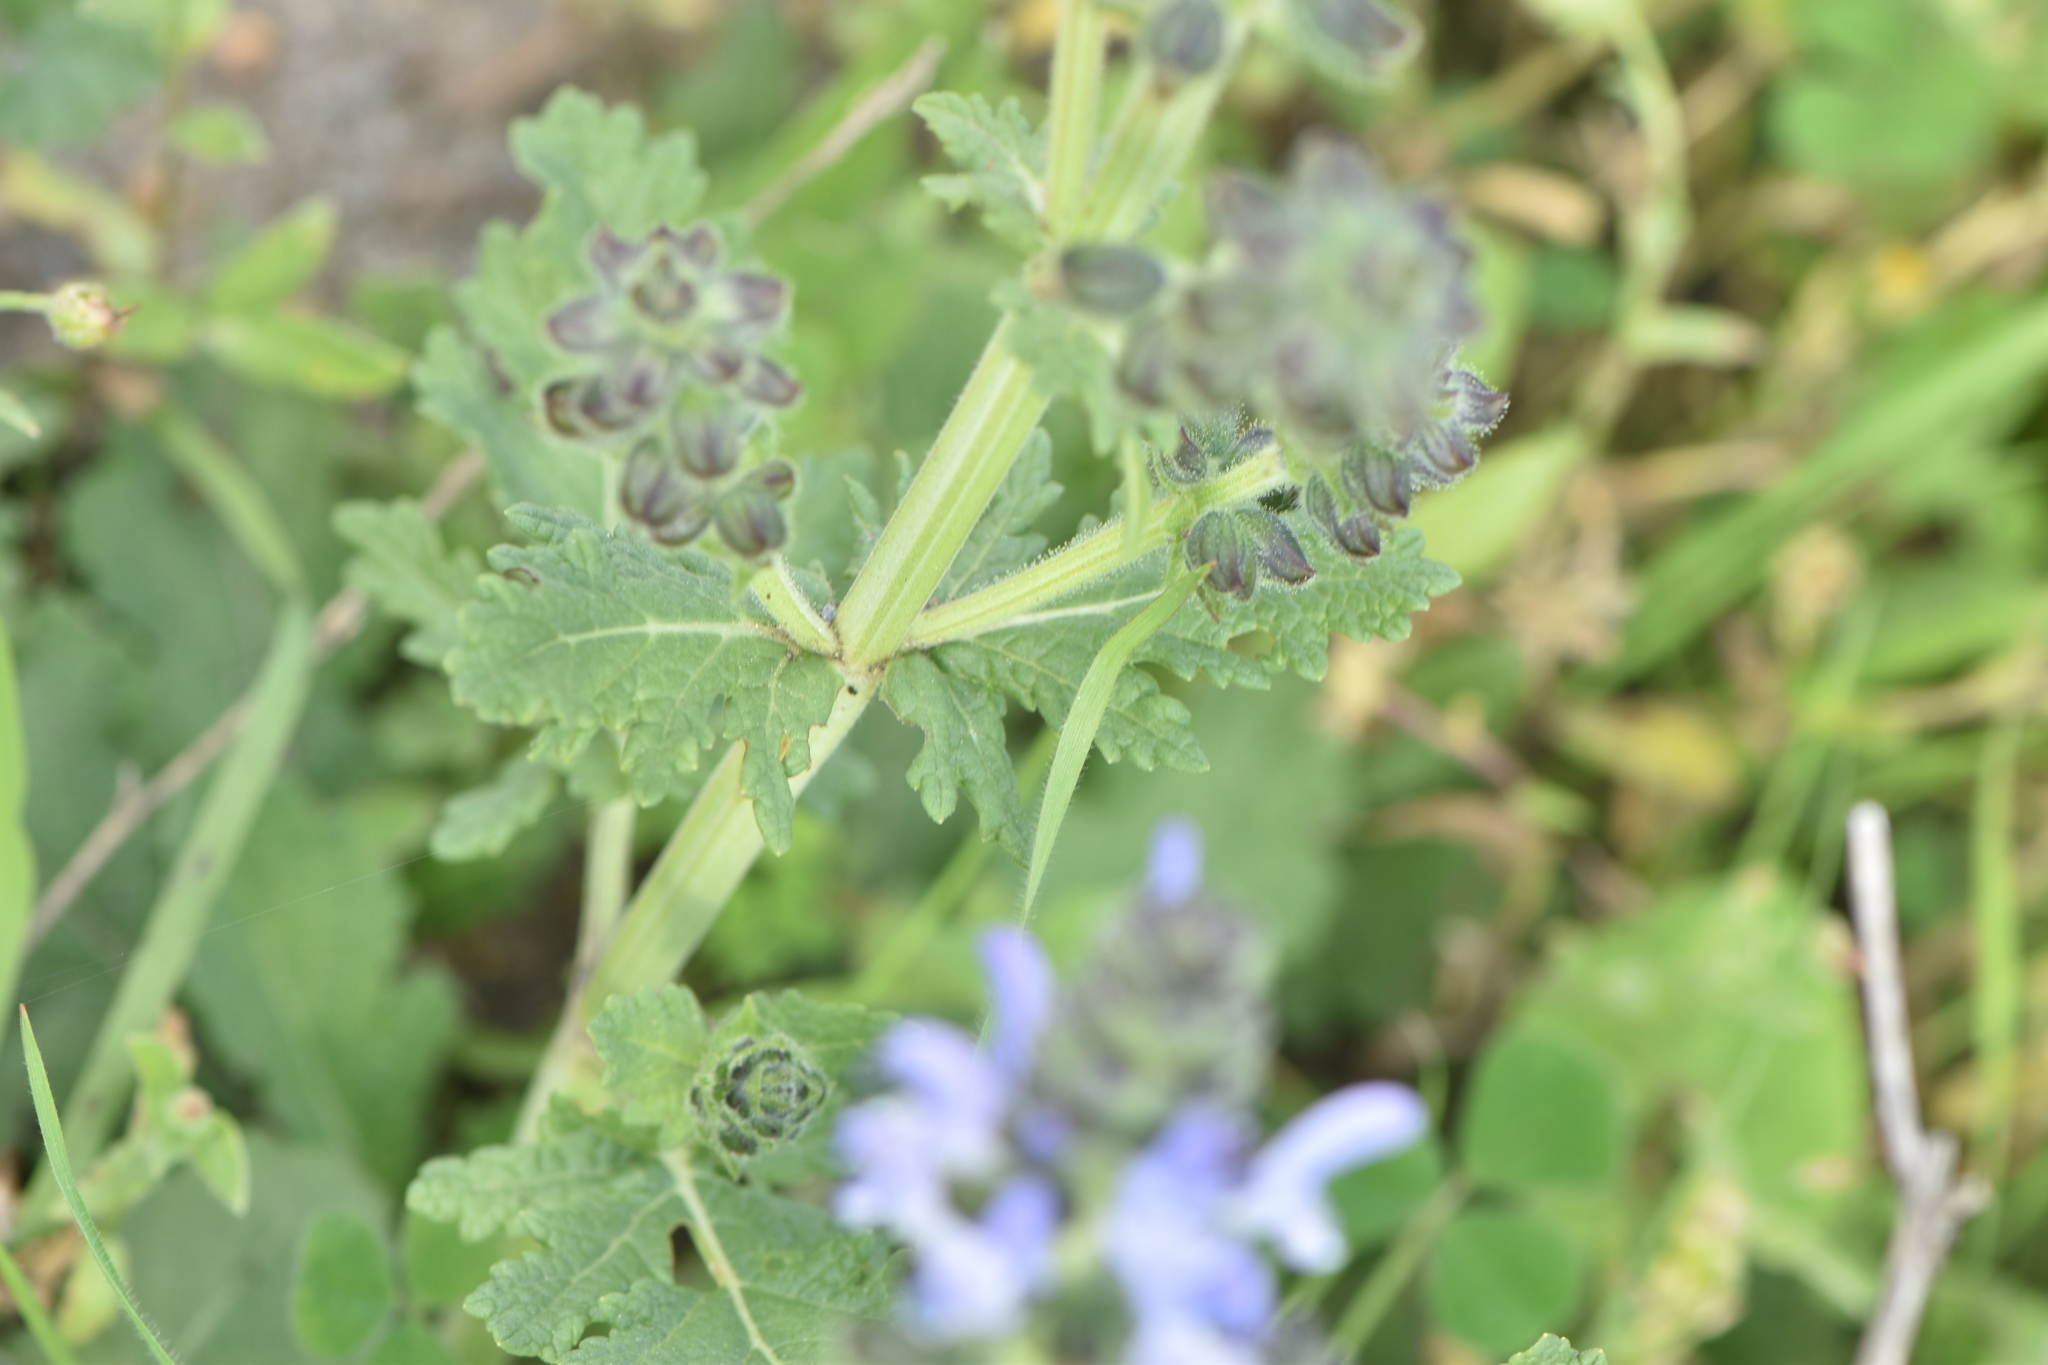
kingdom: Plantae
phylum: Tracheophyta
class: Magnoliopsida
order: Lamiales
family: Lamiaceae
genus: Salvia
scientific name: Salvia verbenaca
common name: Wild clary
